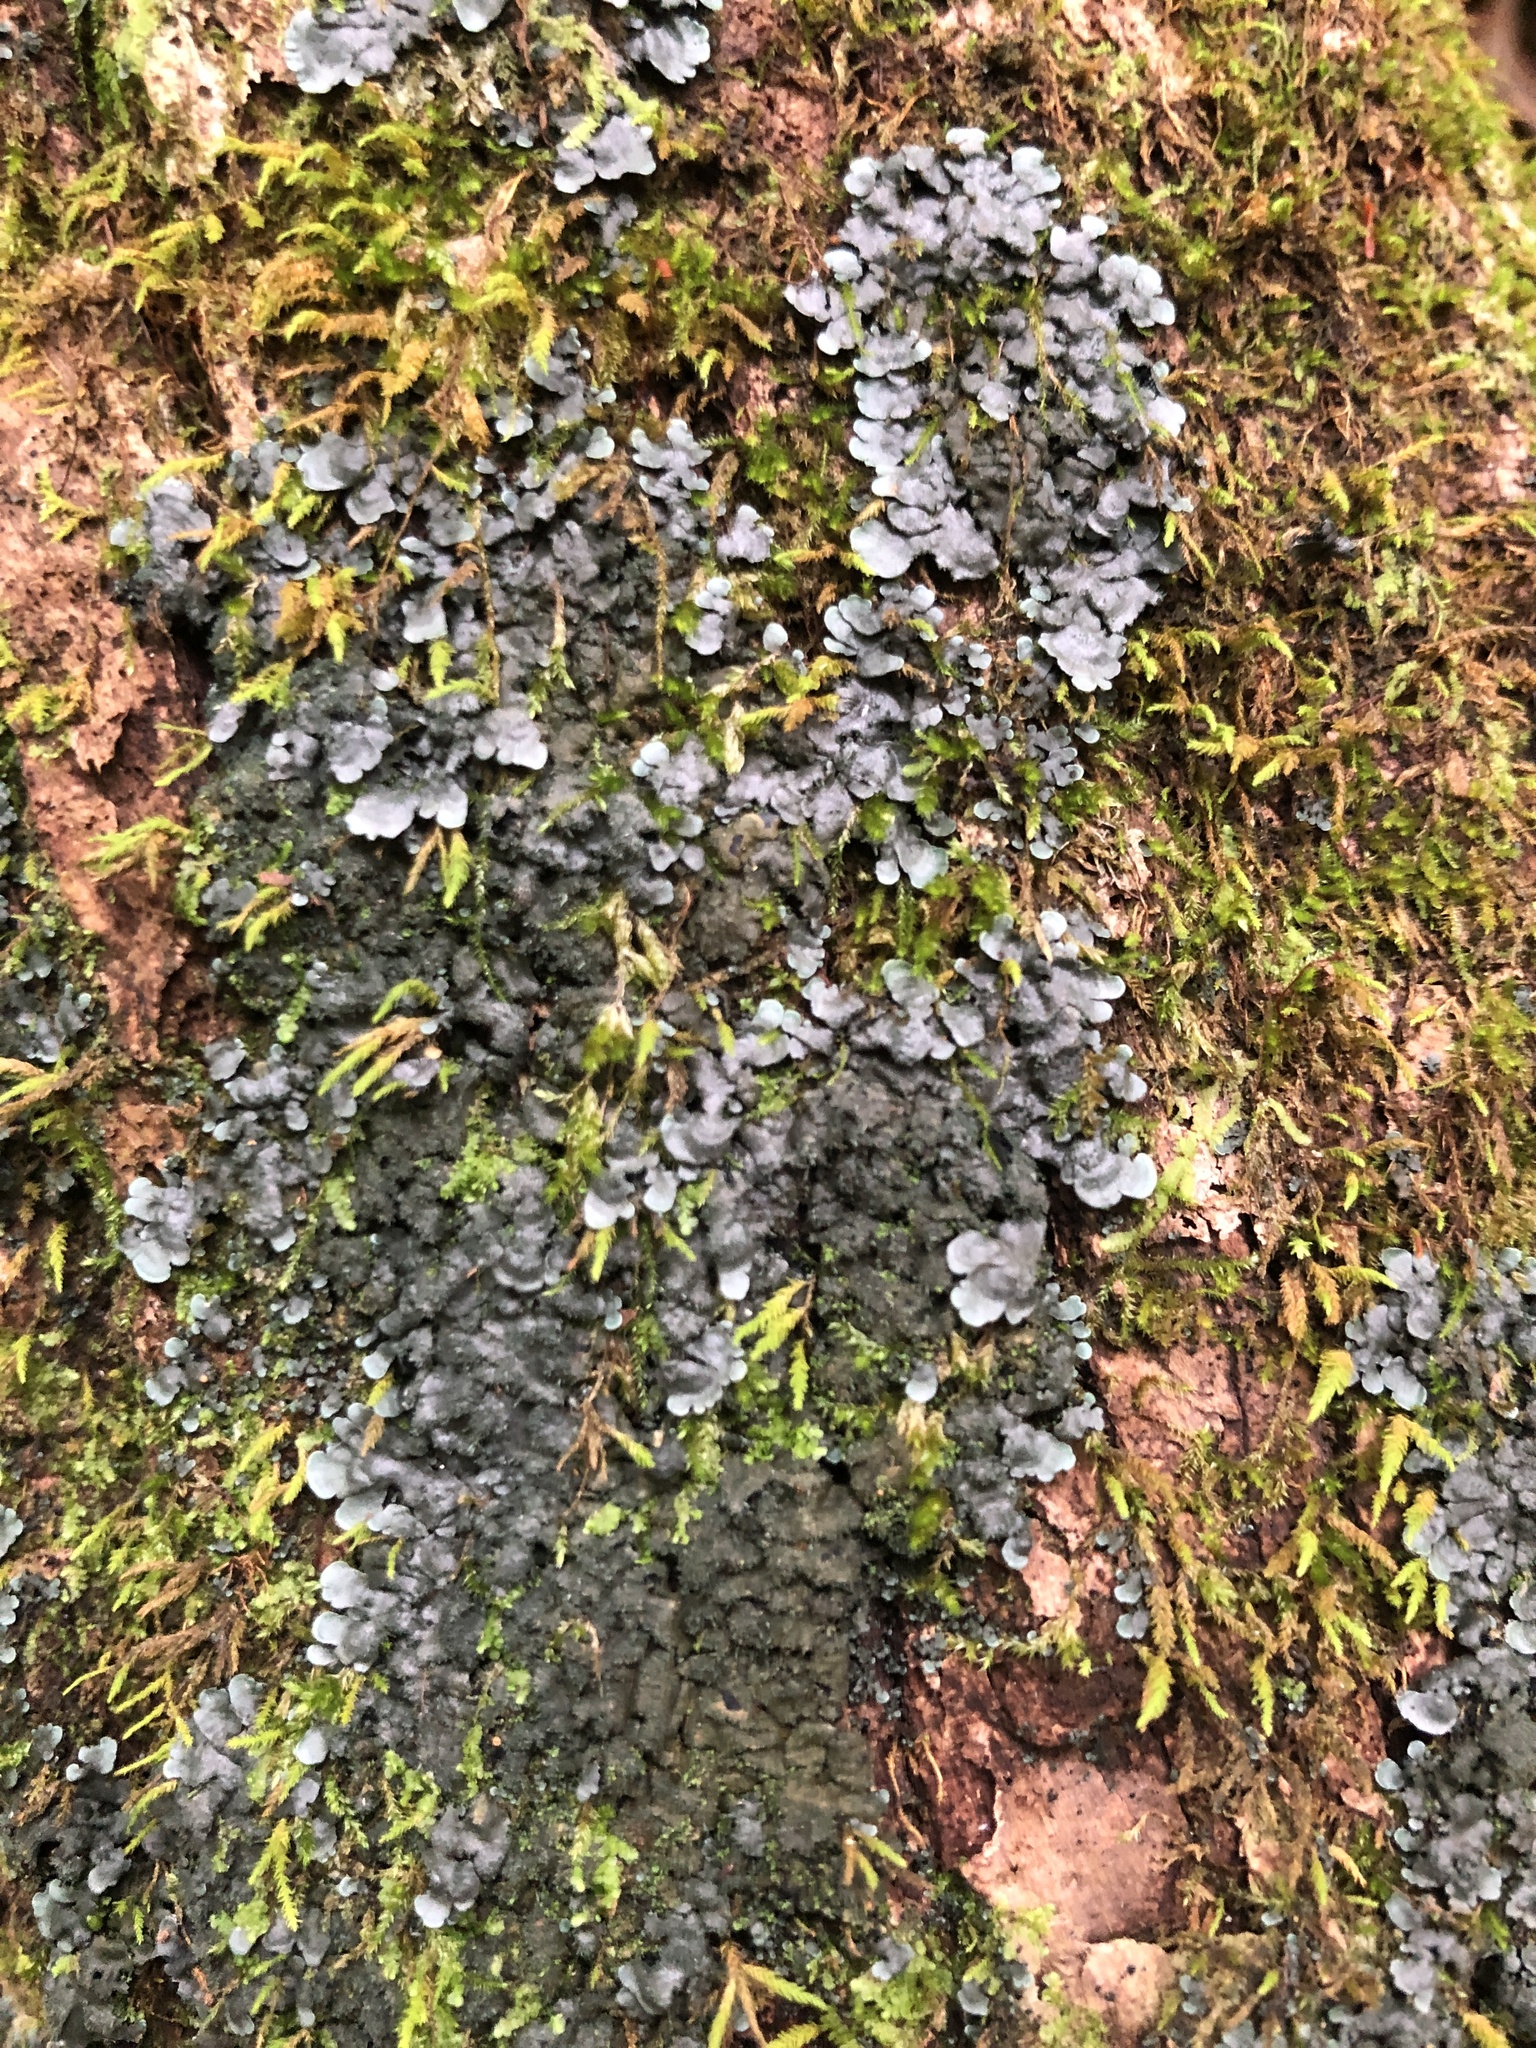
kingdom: Fungi
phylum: Ascomycota
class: Lecanoromycetes
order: Peltigerales
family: Coccocarpiaceae
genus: Coccocarpia
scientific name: Coccocarpia palmicola
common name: Salted shell lichen
